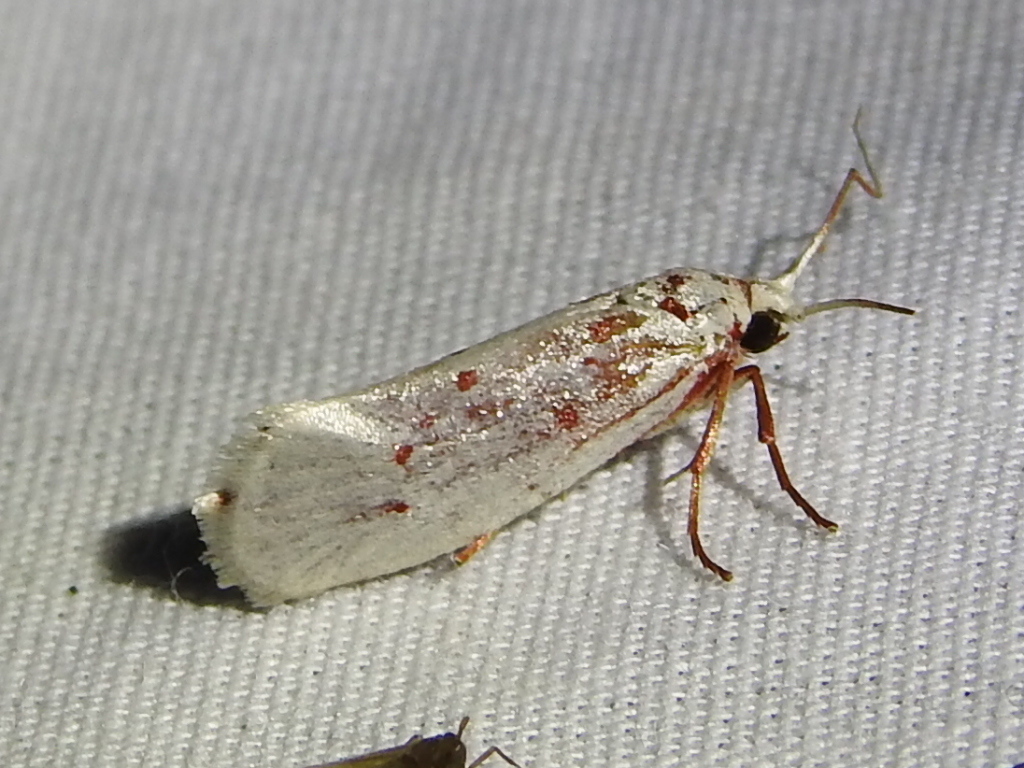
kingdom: Animalia
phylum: Arthropoda
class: Insecta
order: Lepidoptera
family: Lacturidae
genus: Lactura
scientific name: Lactura
